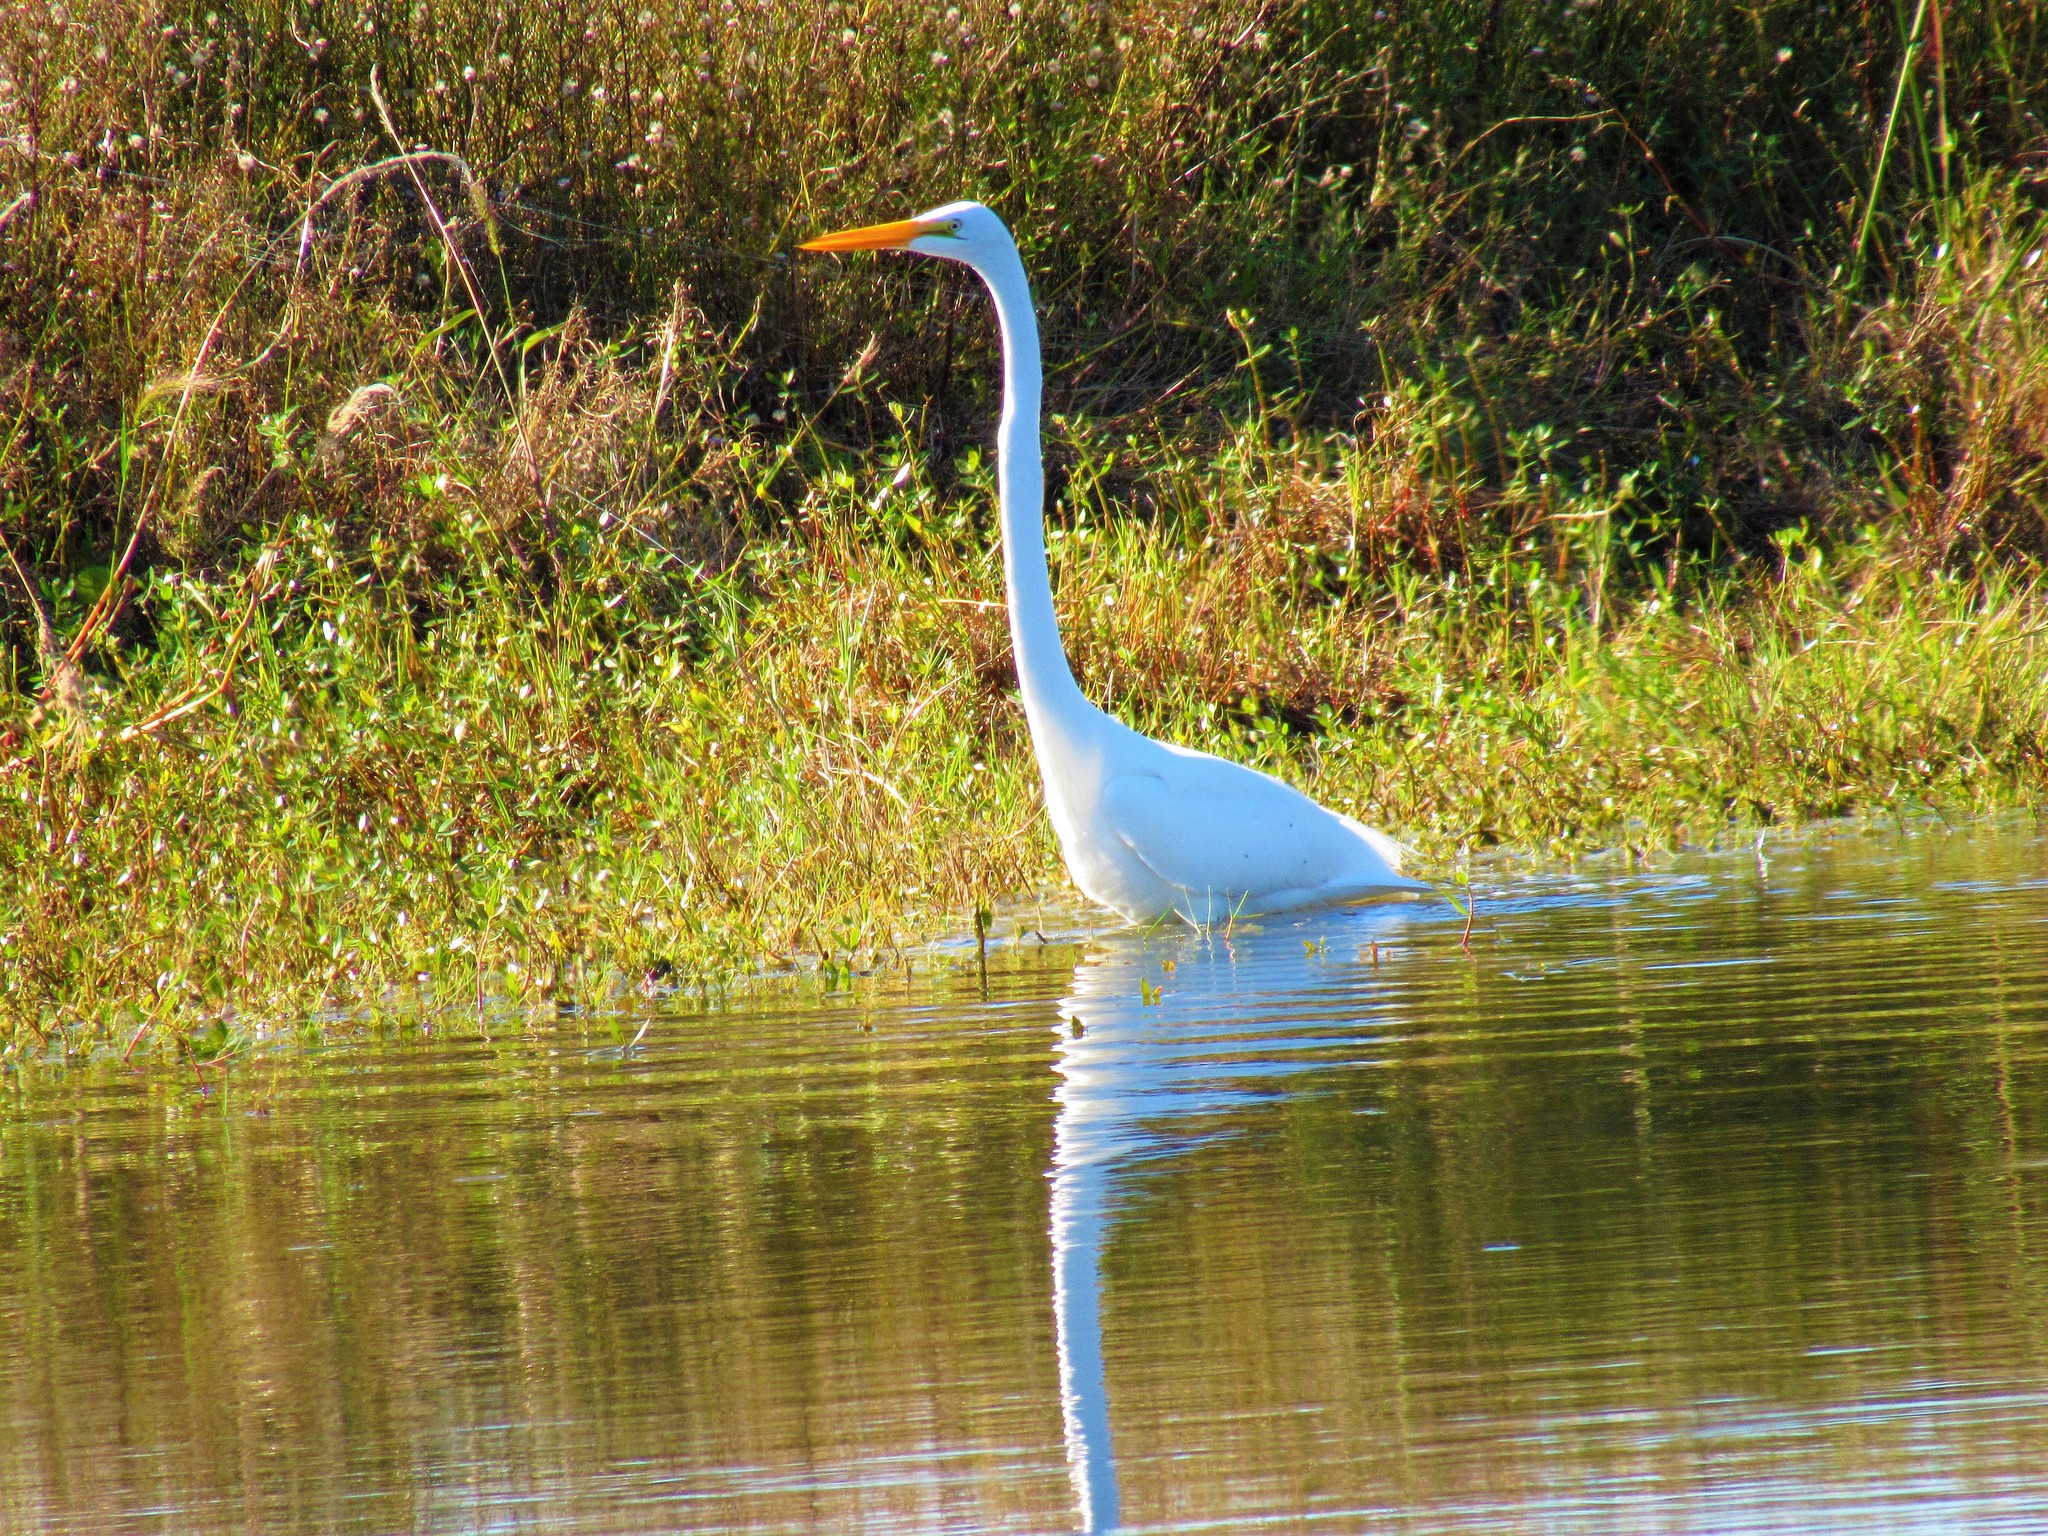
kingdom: Animalia
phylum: Chordata
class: Aves
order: Pelecaniformes
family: Ardeidae
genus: Ardea
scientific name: Ardea alba
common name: Great egret
